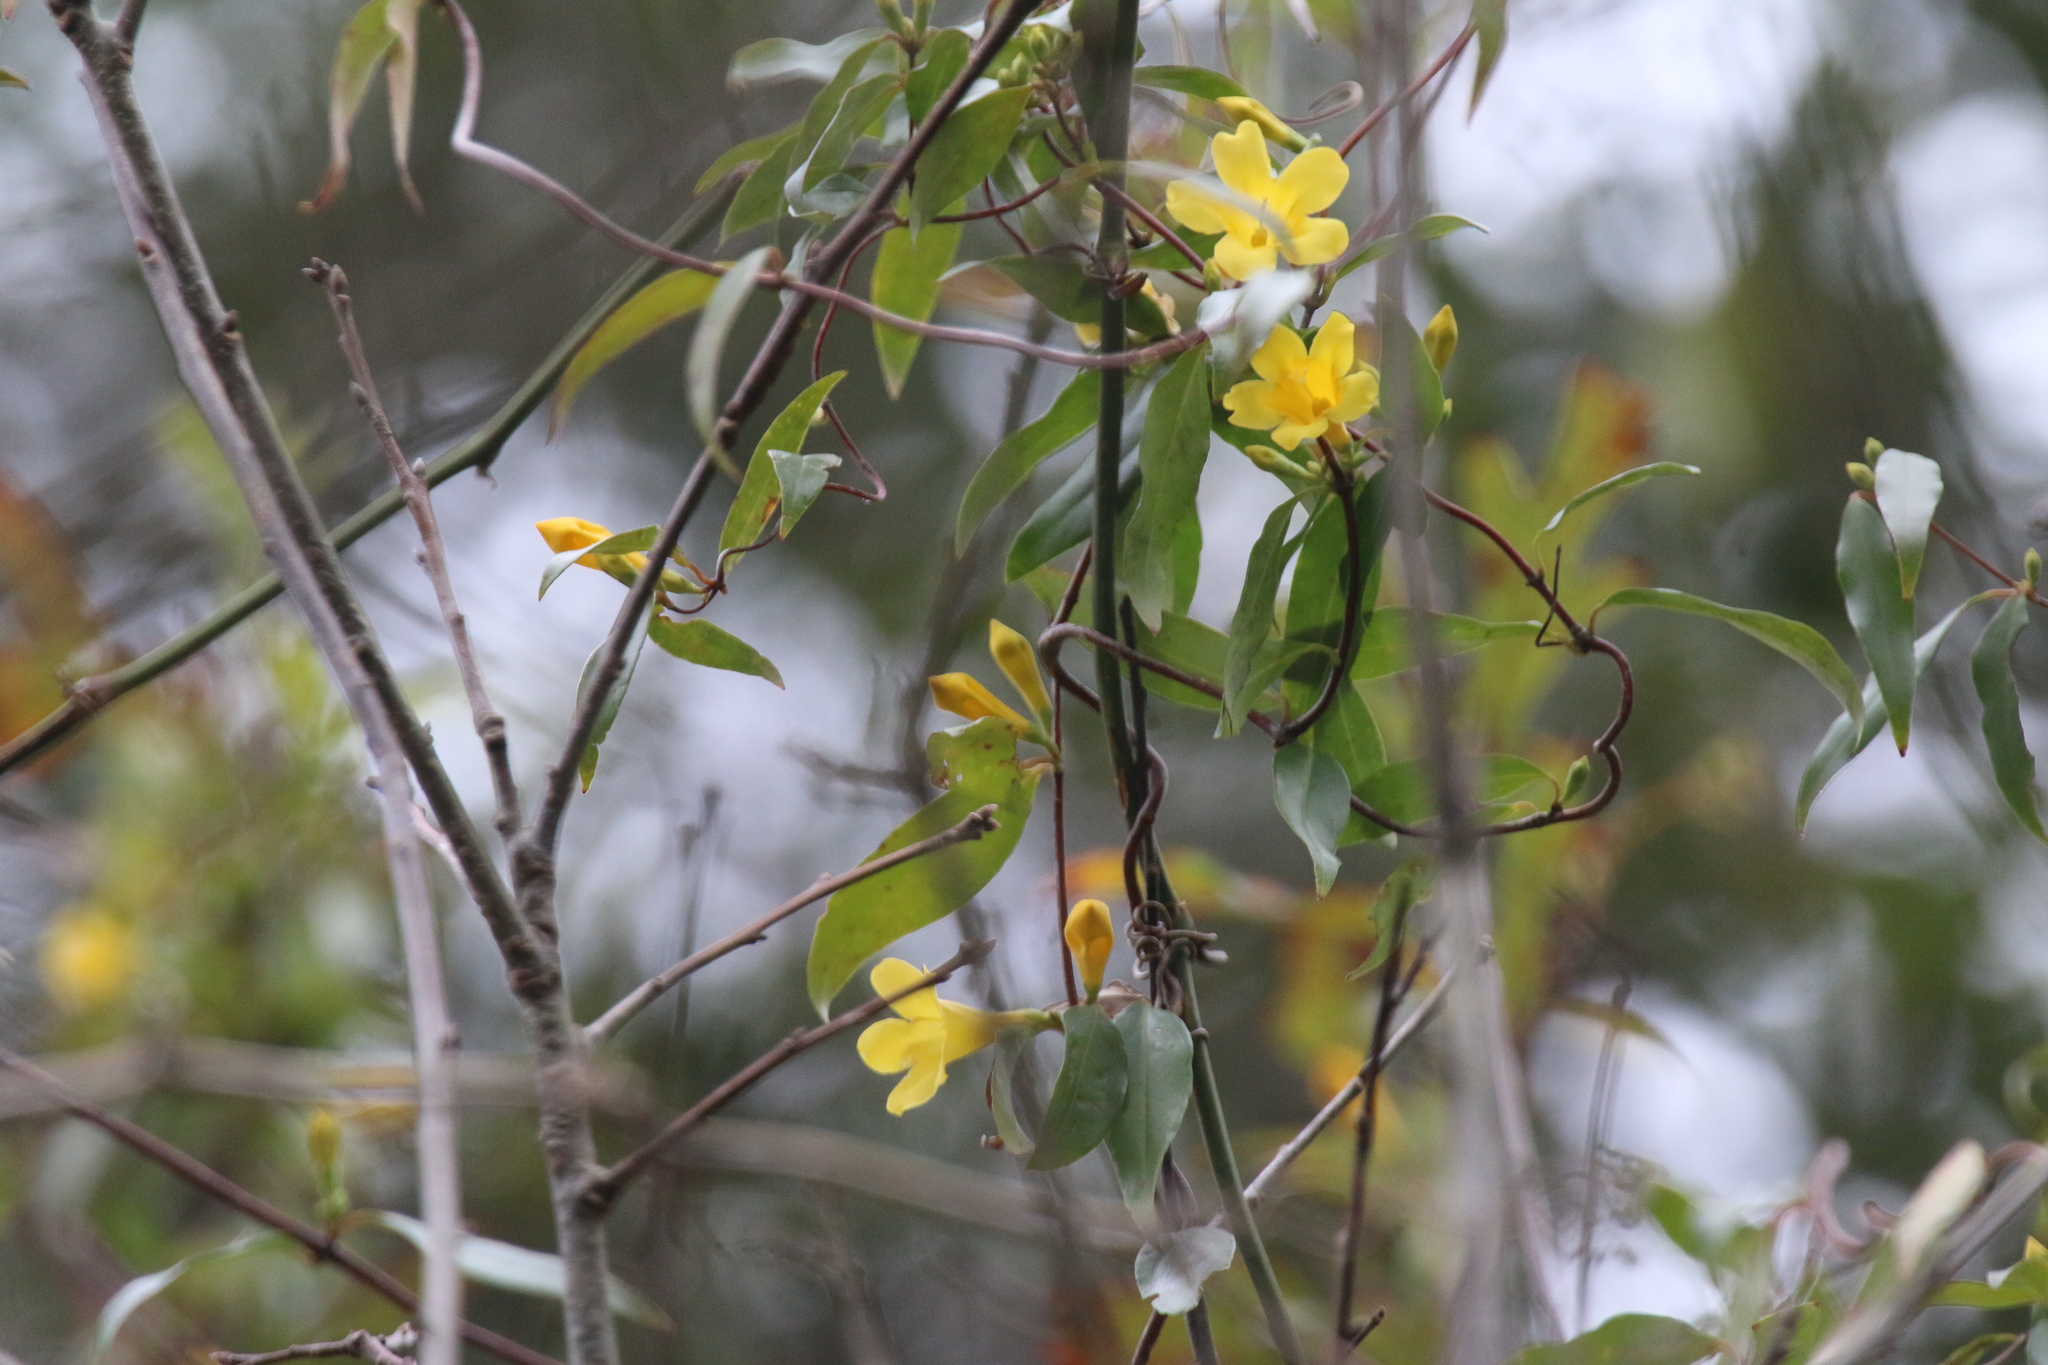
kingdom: Plantae
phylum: Tracheophyta
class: Magnoliopsida
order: Gentianales
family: Gelsemiaceae
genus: Gelsemium
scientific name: Gelsemium sempervirens
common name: Carolina-jasmine
